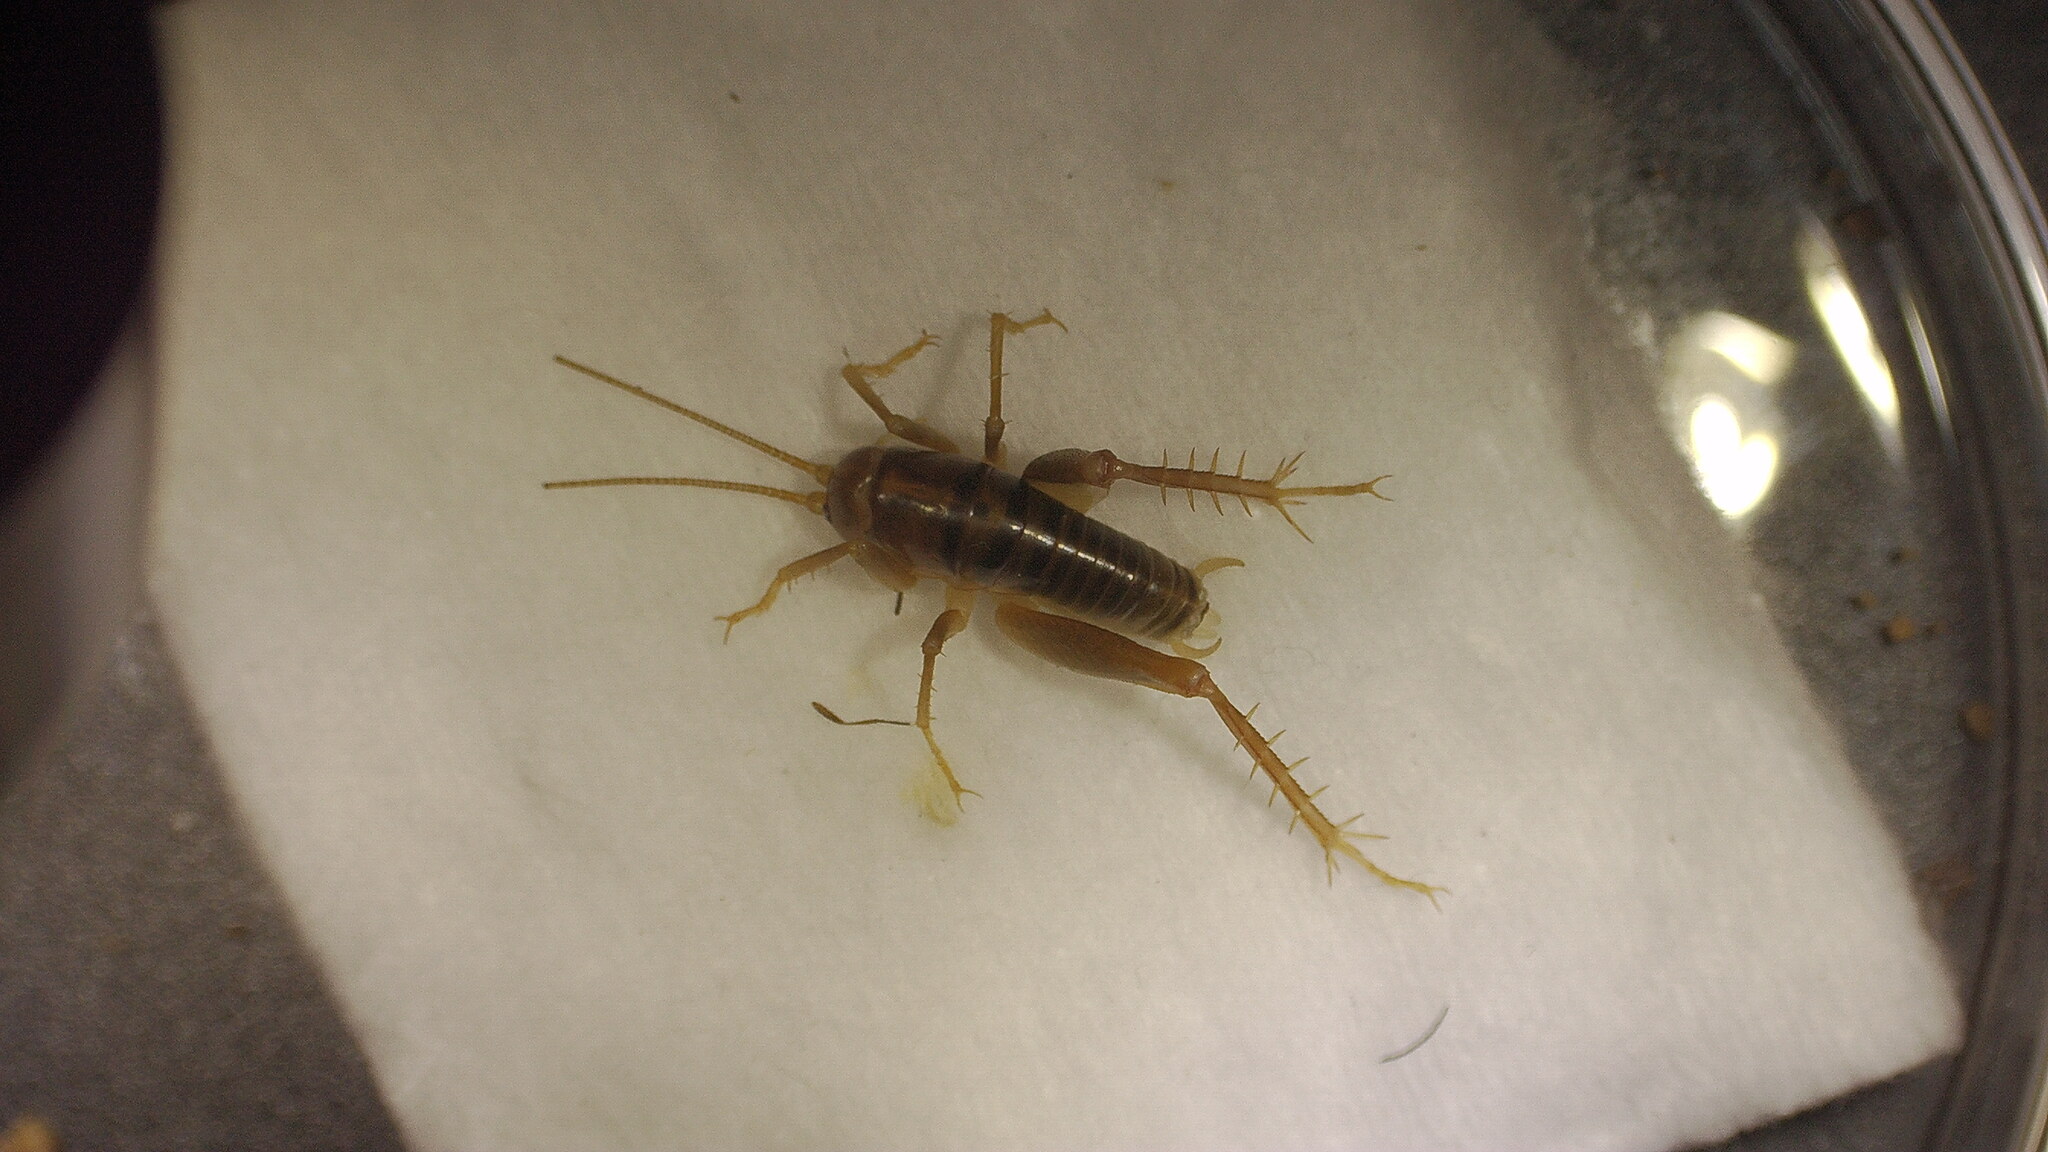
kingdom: Animalia
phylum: Arthropoda
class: Insecta
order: Orthoptera
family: Rhaphidophoridae
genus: Ceuthophilus
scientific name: Ceuthophilus californianus
